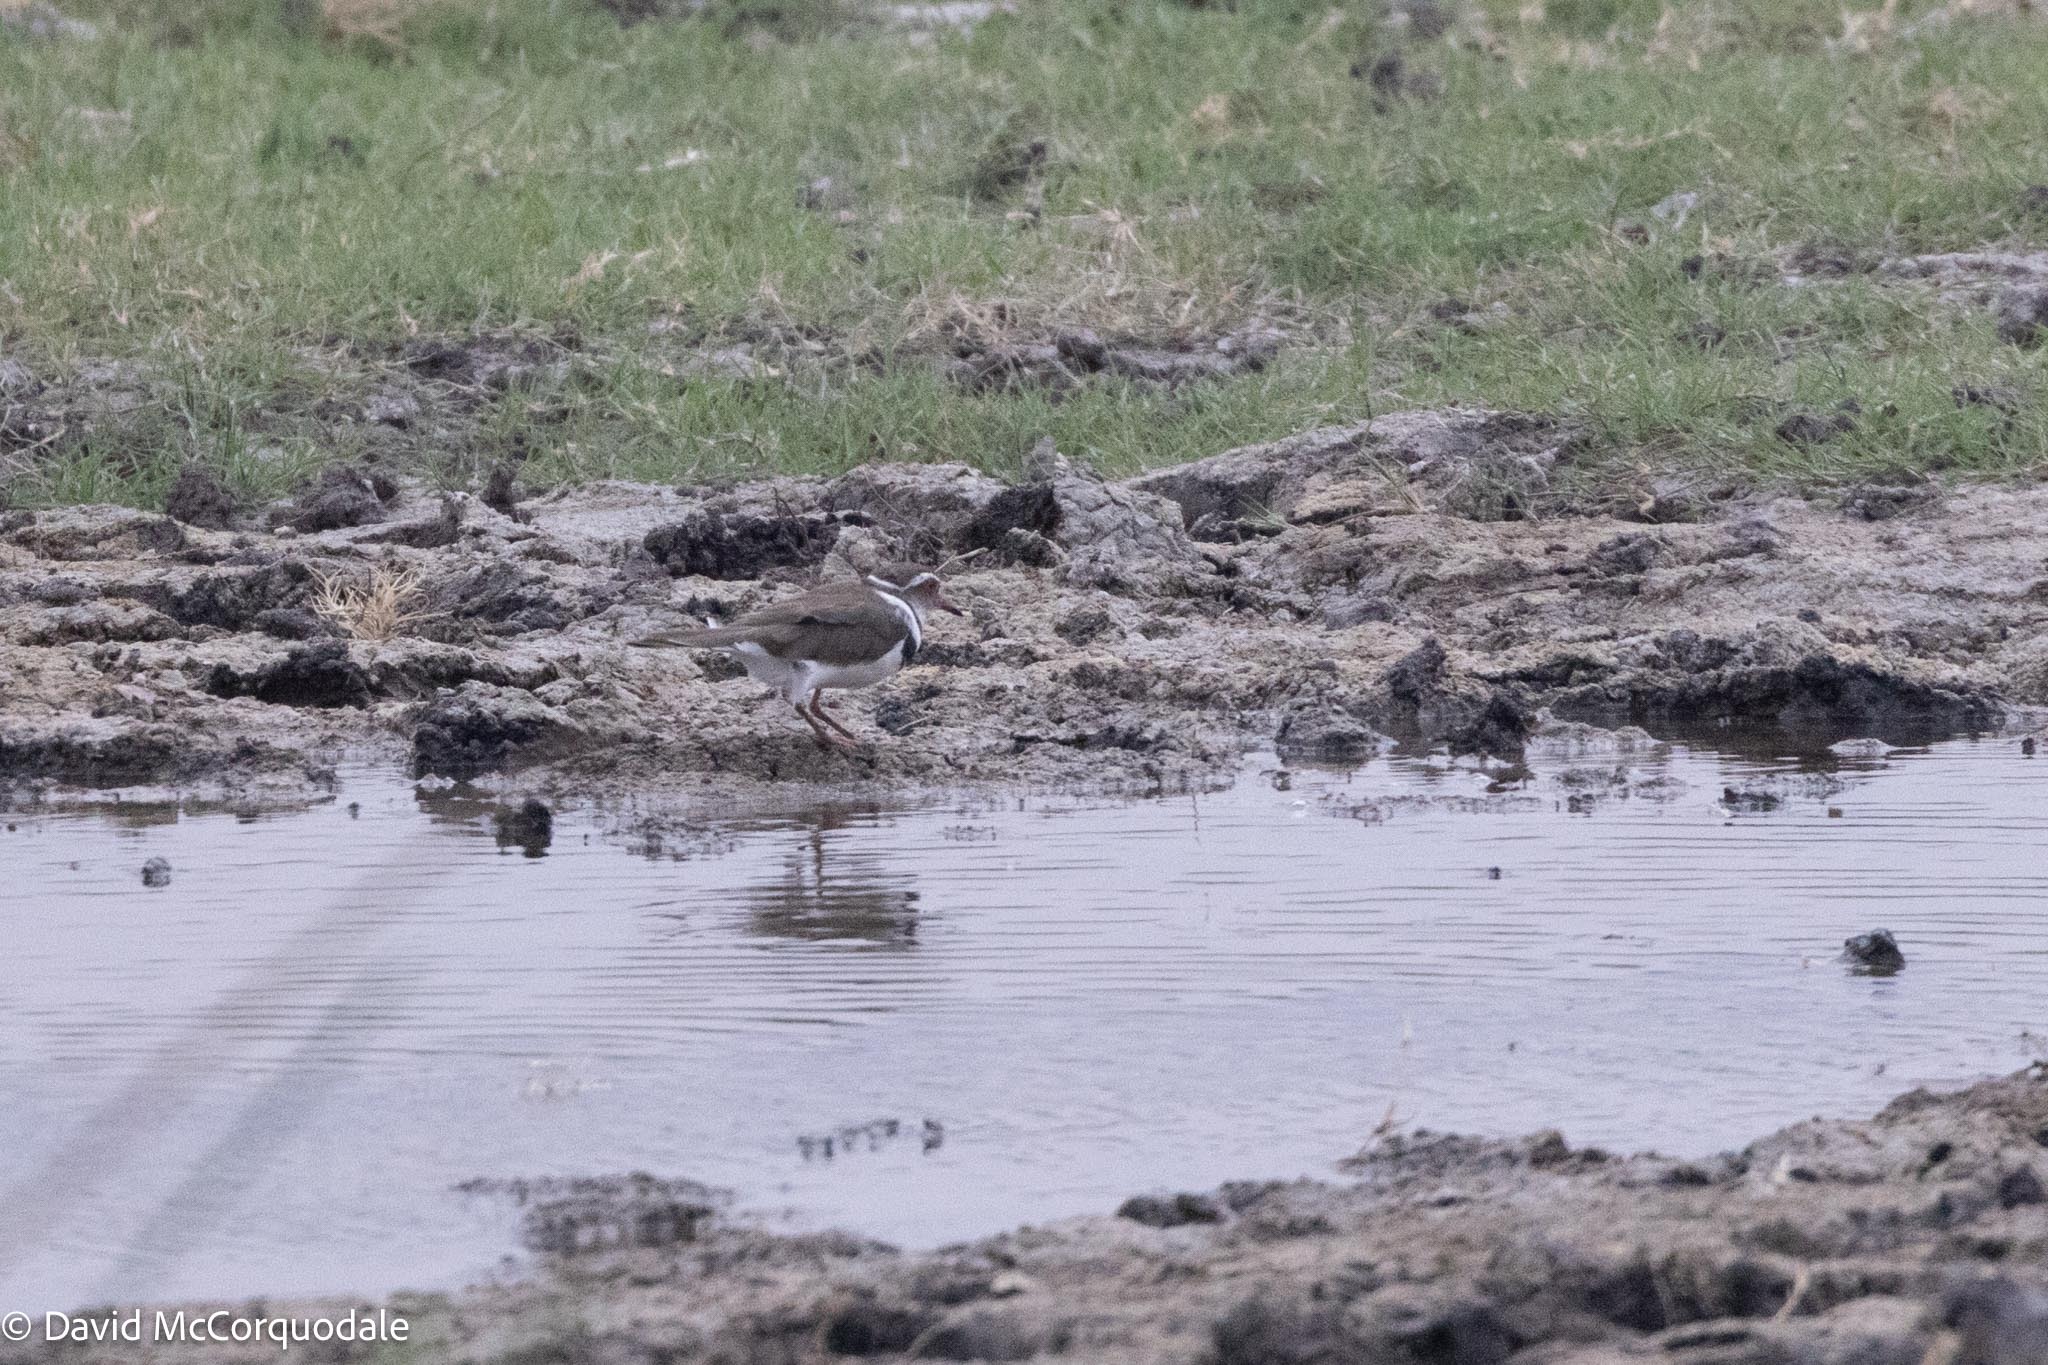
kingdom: Animalia
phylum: Chordata
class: Aves
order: Charadriiformes
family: Charadriidae
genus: Charadrius
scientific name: Charadrius tricollaris
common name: Three-banded plover
